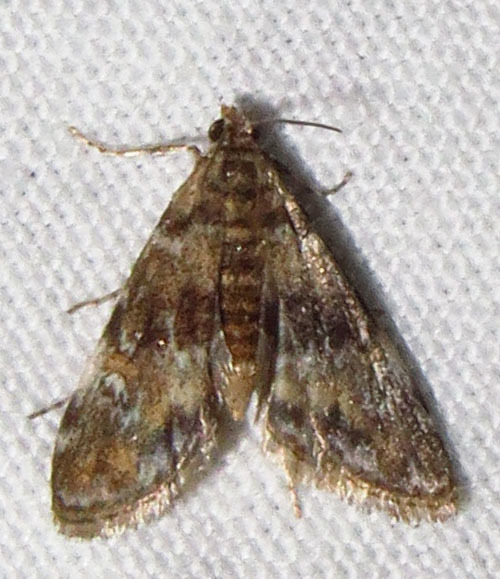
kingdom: Animalia
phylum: Arthropoda
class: Insecta
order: Lepidoptera
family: Crambidae
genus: Elophila
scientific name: Elophila obliteralis
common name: Waterlily leafcutter moth
